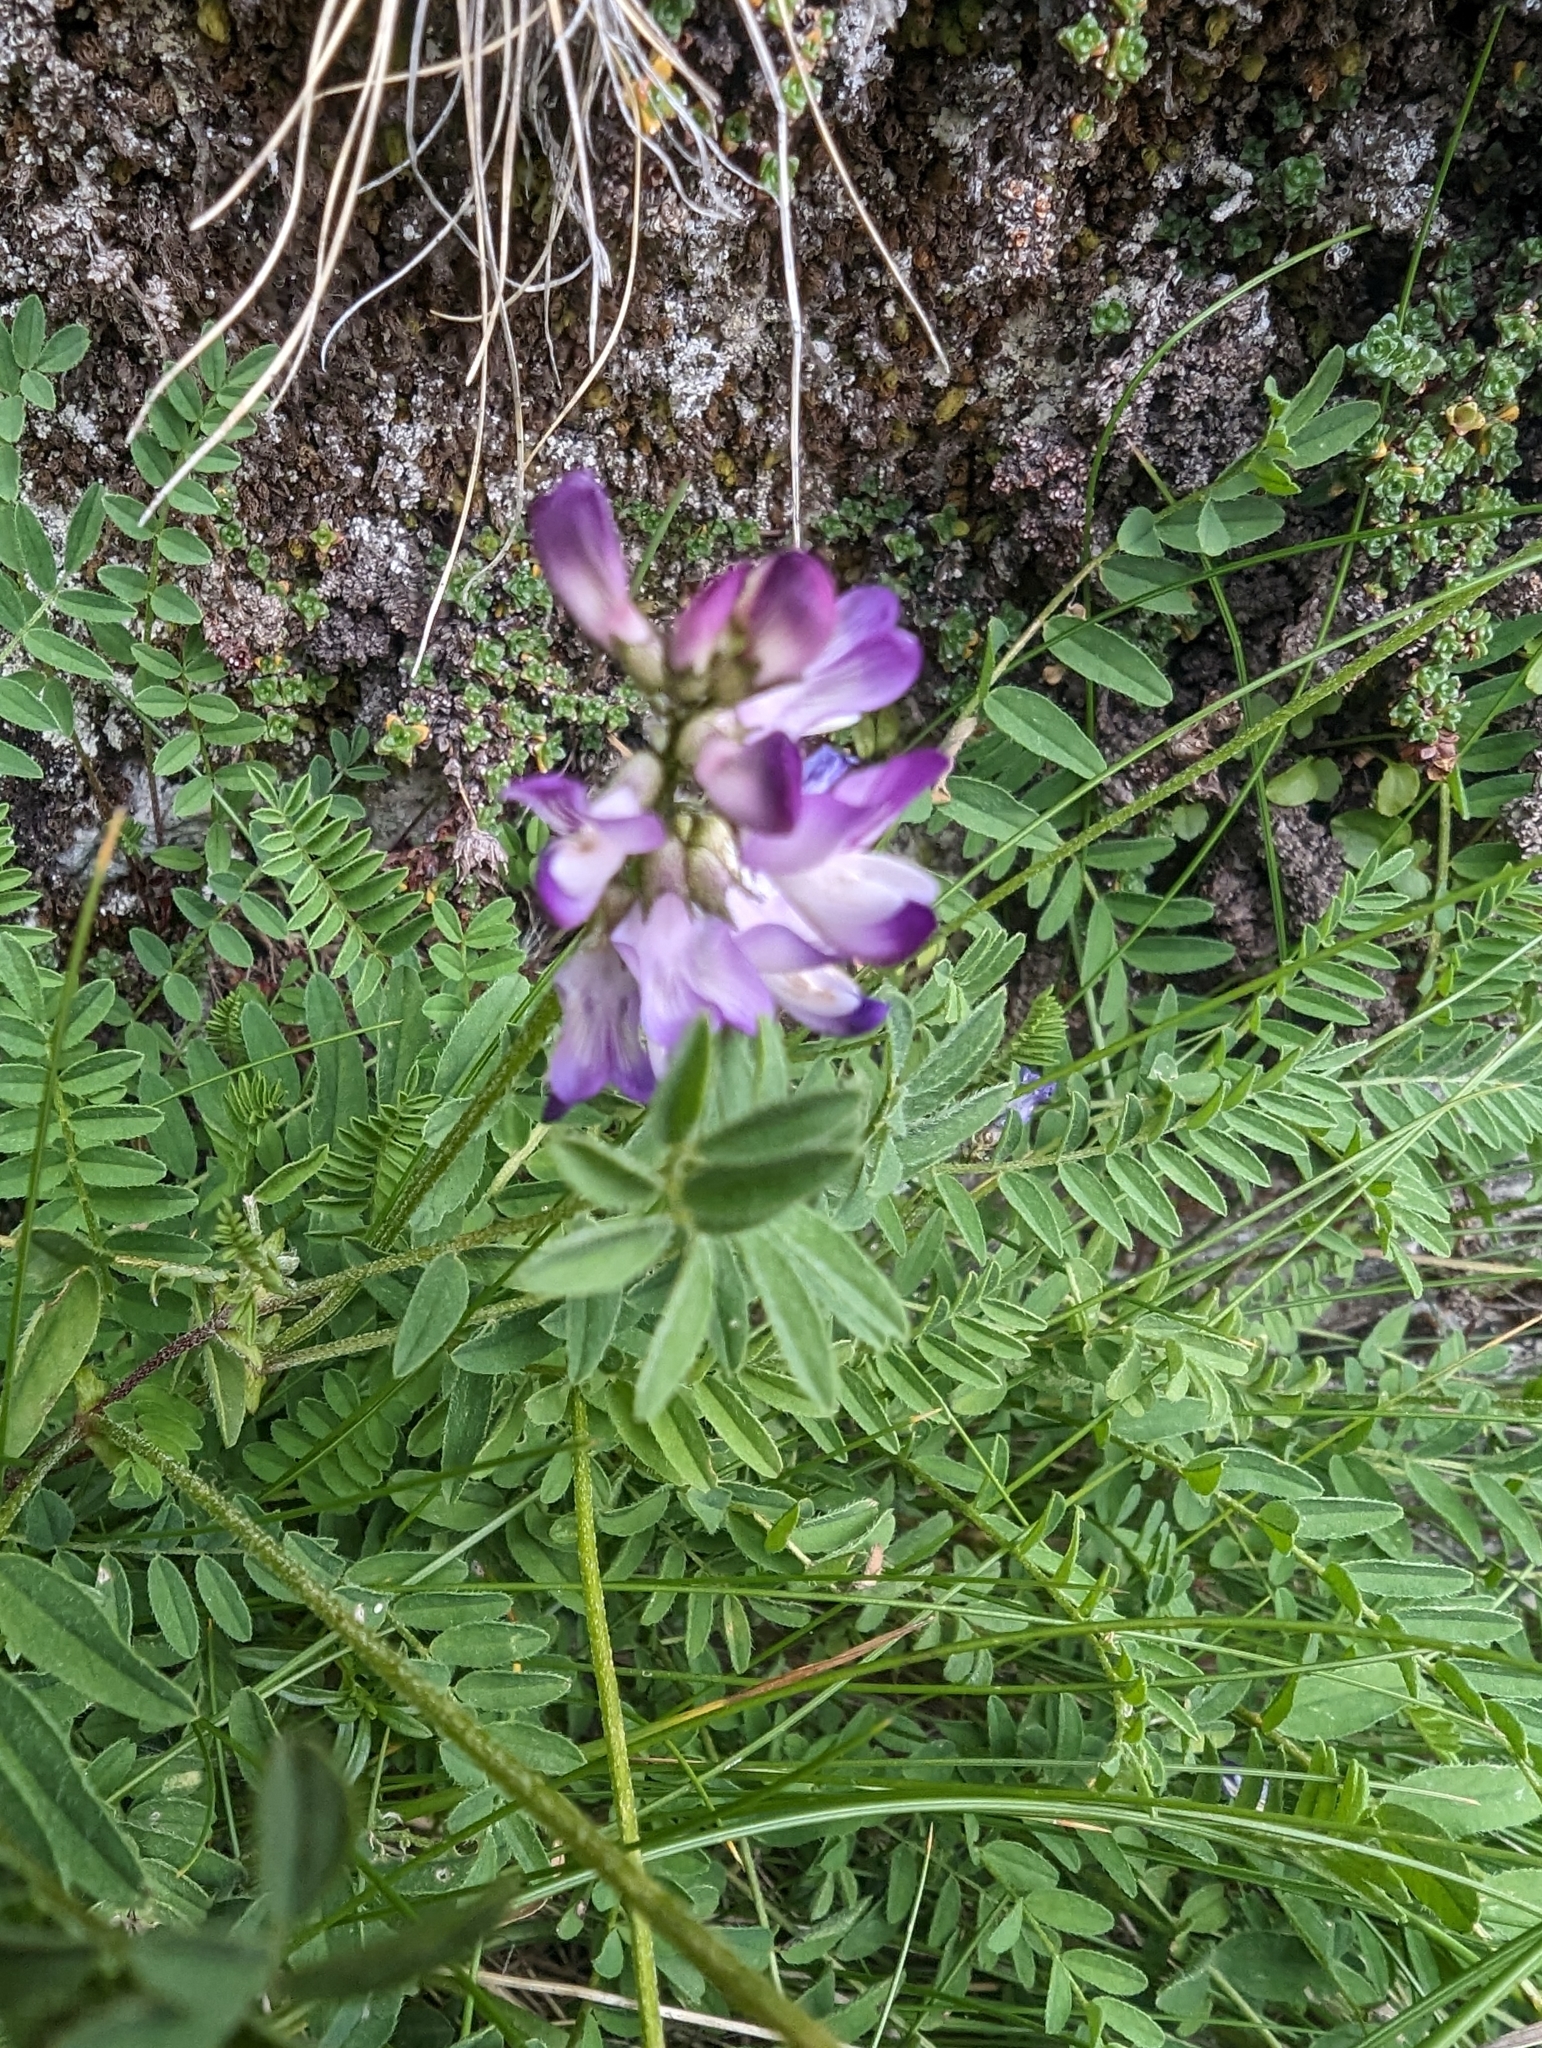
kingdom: Plantae
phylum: Tracheophyta
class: Magnoliopsida
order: Fabales
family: Fabaceae
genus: Astragalus
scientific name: Astragalus alpinus
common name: Alpine milk-vetch
